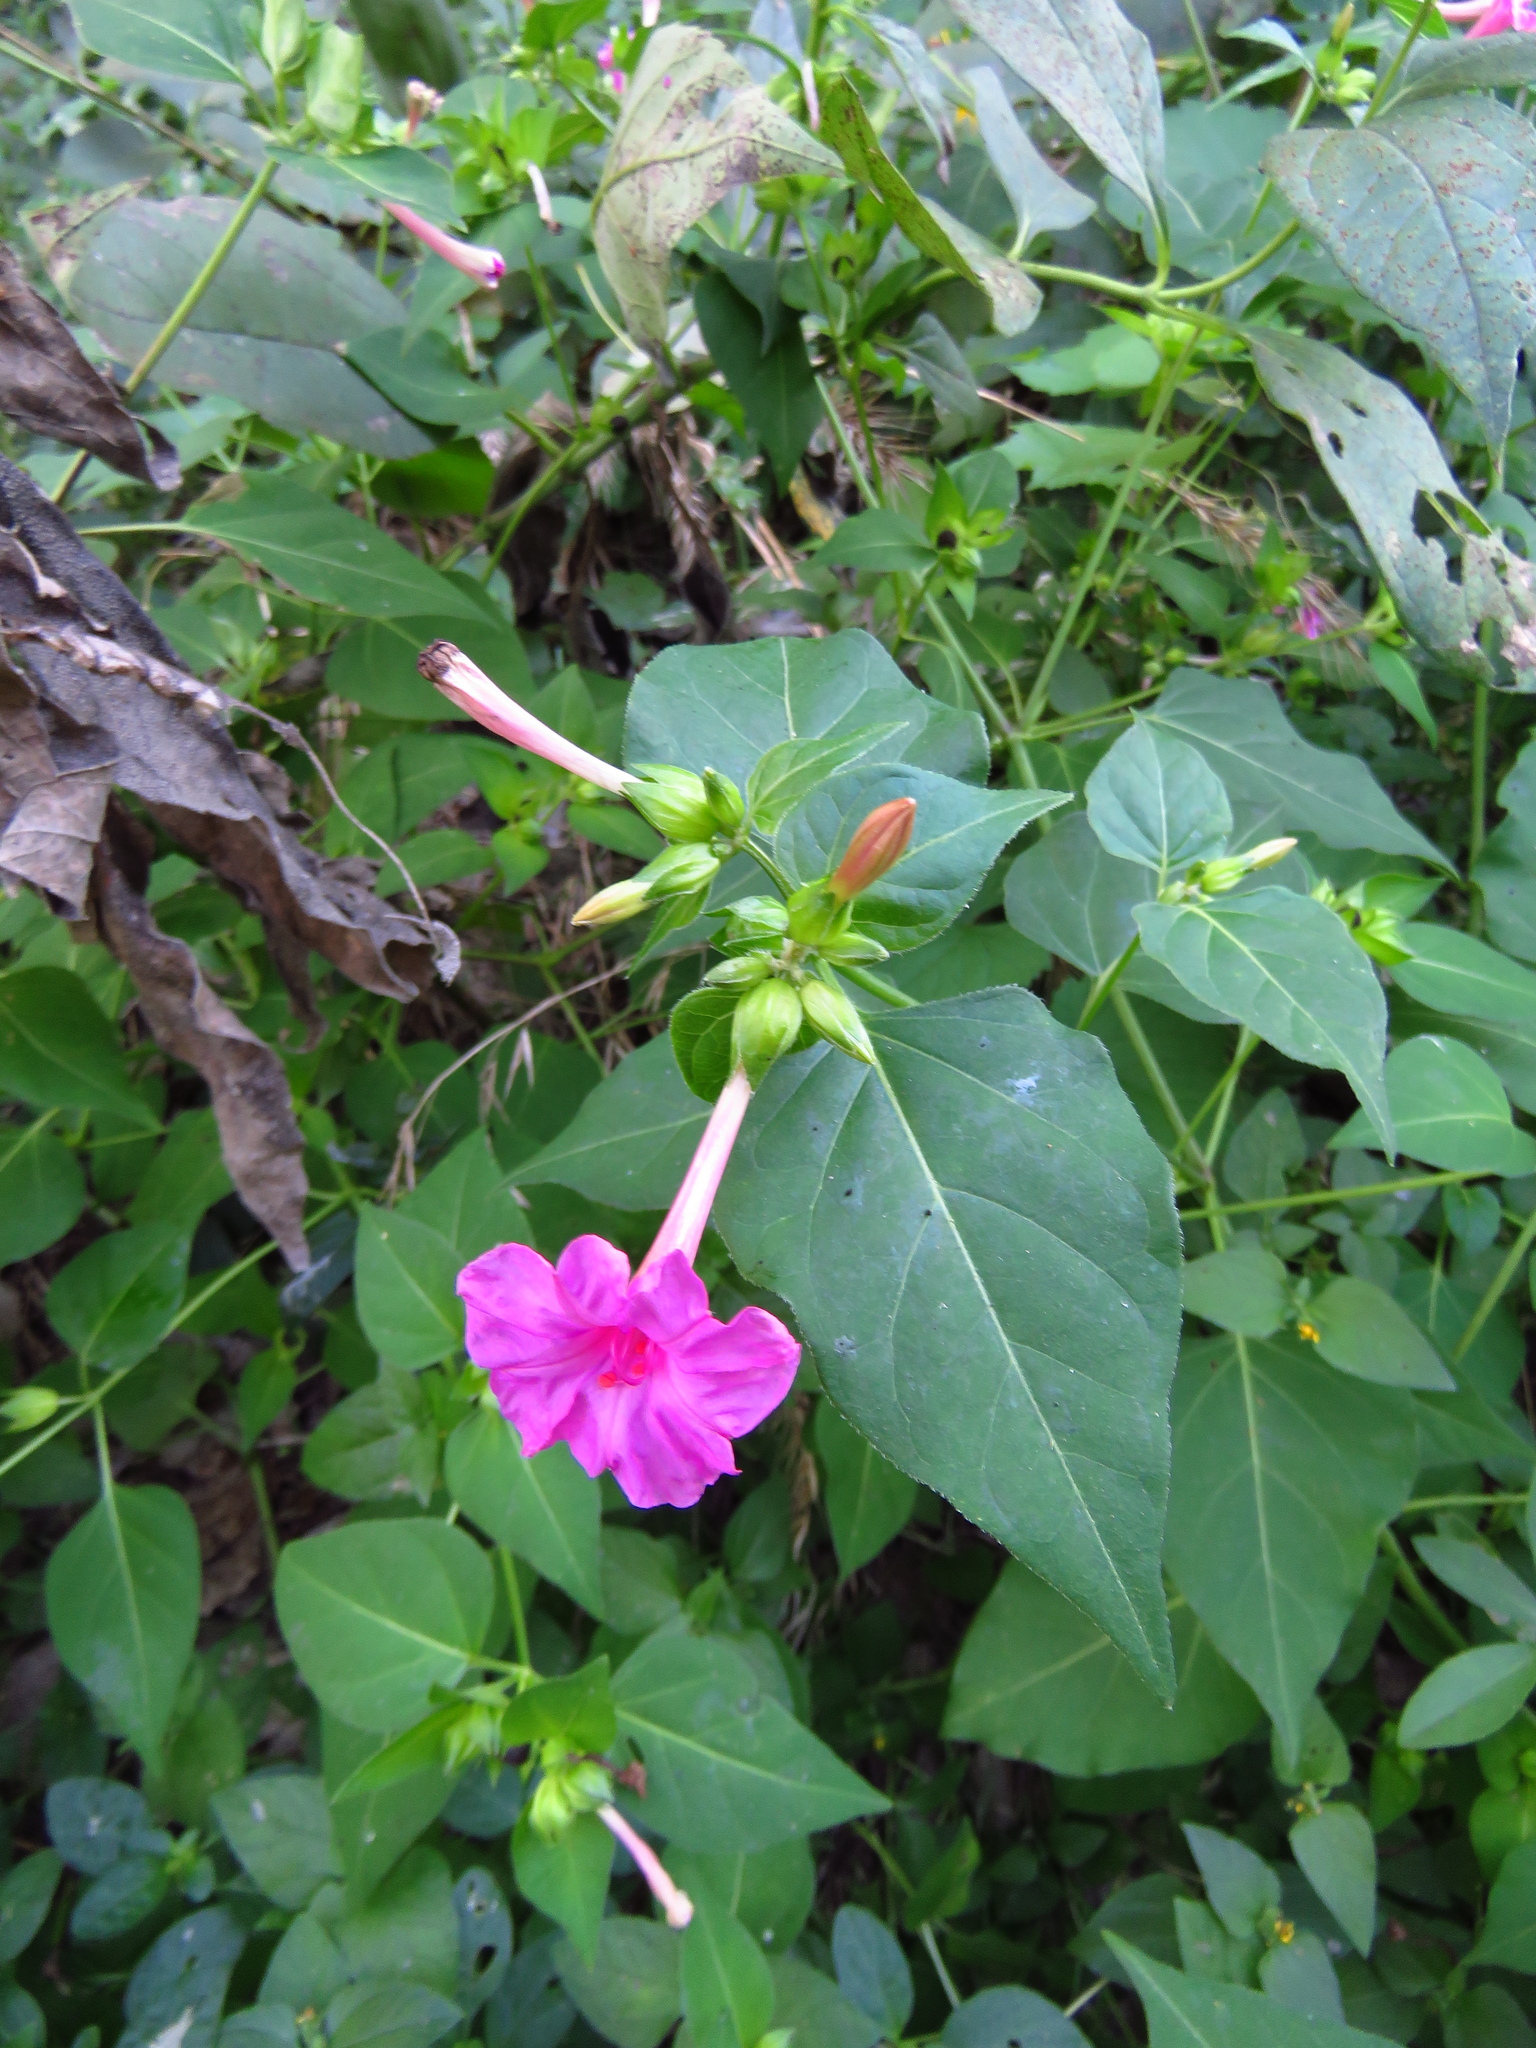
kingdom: Plantae
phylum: Tracheophyta
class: Magnoliopsida
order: Caryophyllales
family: Nyctaginaceae
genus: Mirabilis
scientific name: Mirabilis jalapa
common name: Marvel-of-peru
